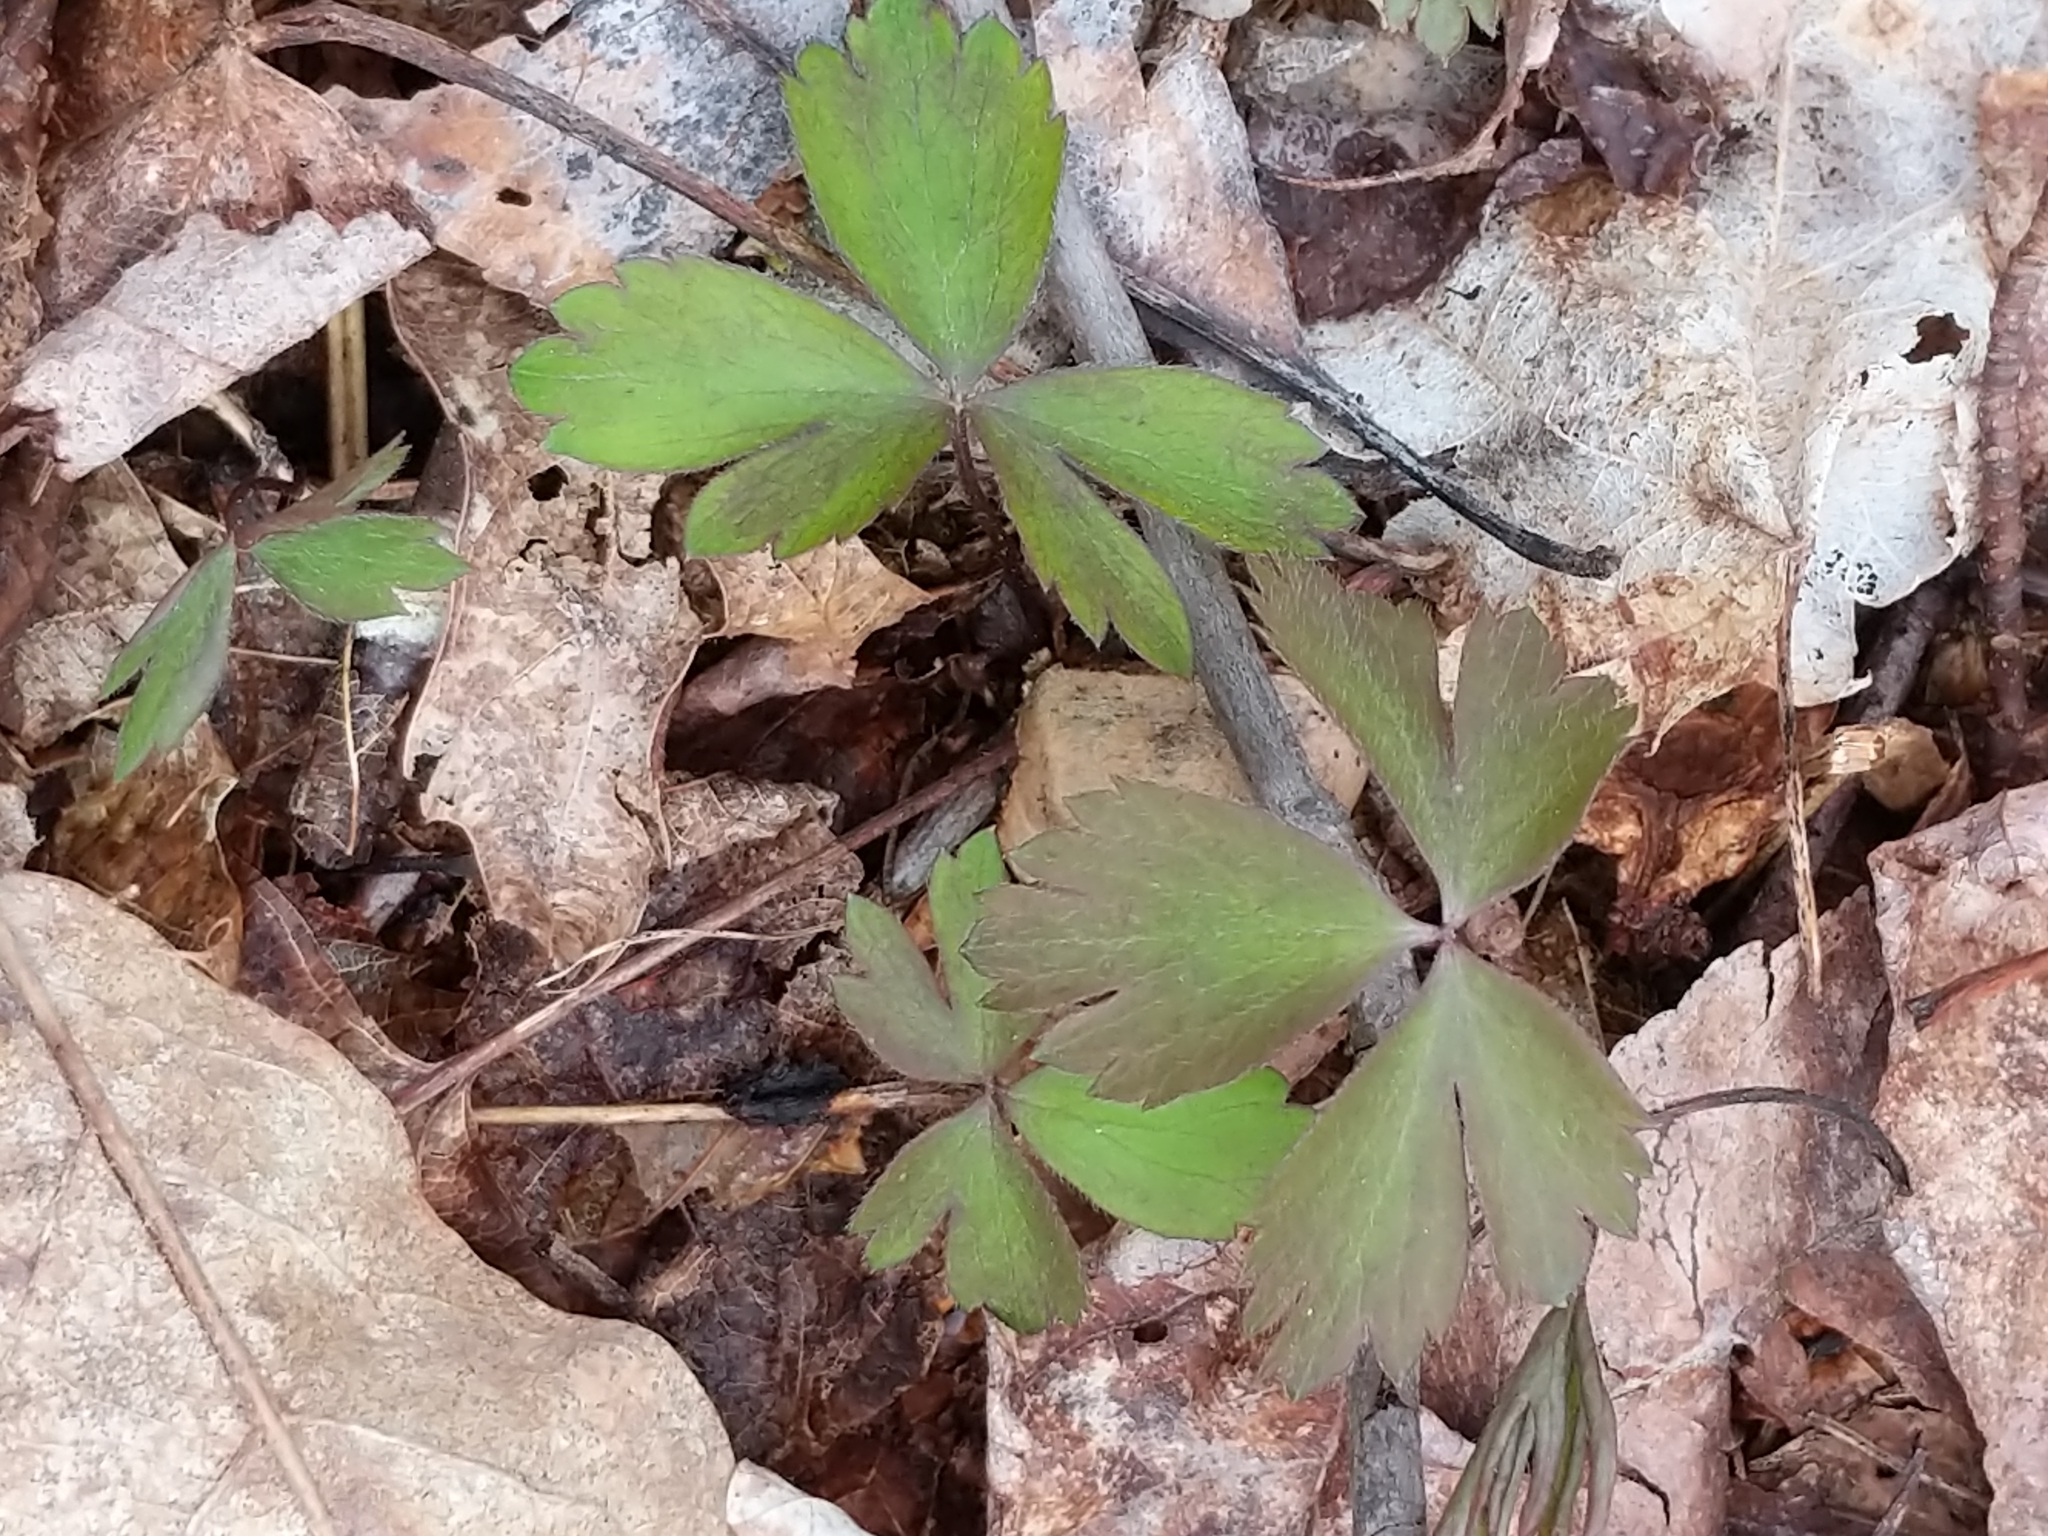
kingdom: Plantae
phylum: Tracheophyta
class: Magnoliopsida
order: Ranunculales
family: Ranunculaceae
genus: Anemone
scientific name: Anemone quinquefolia
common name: Wood anemone
